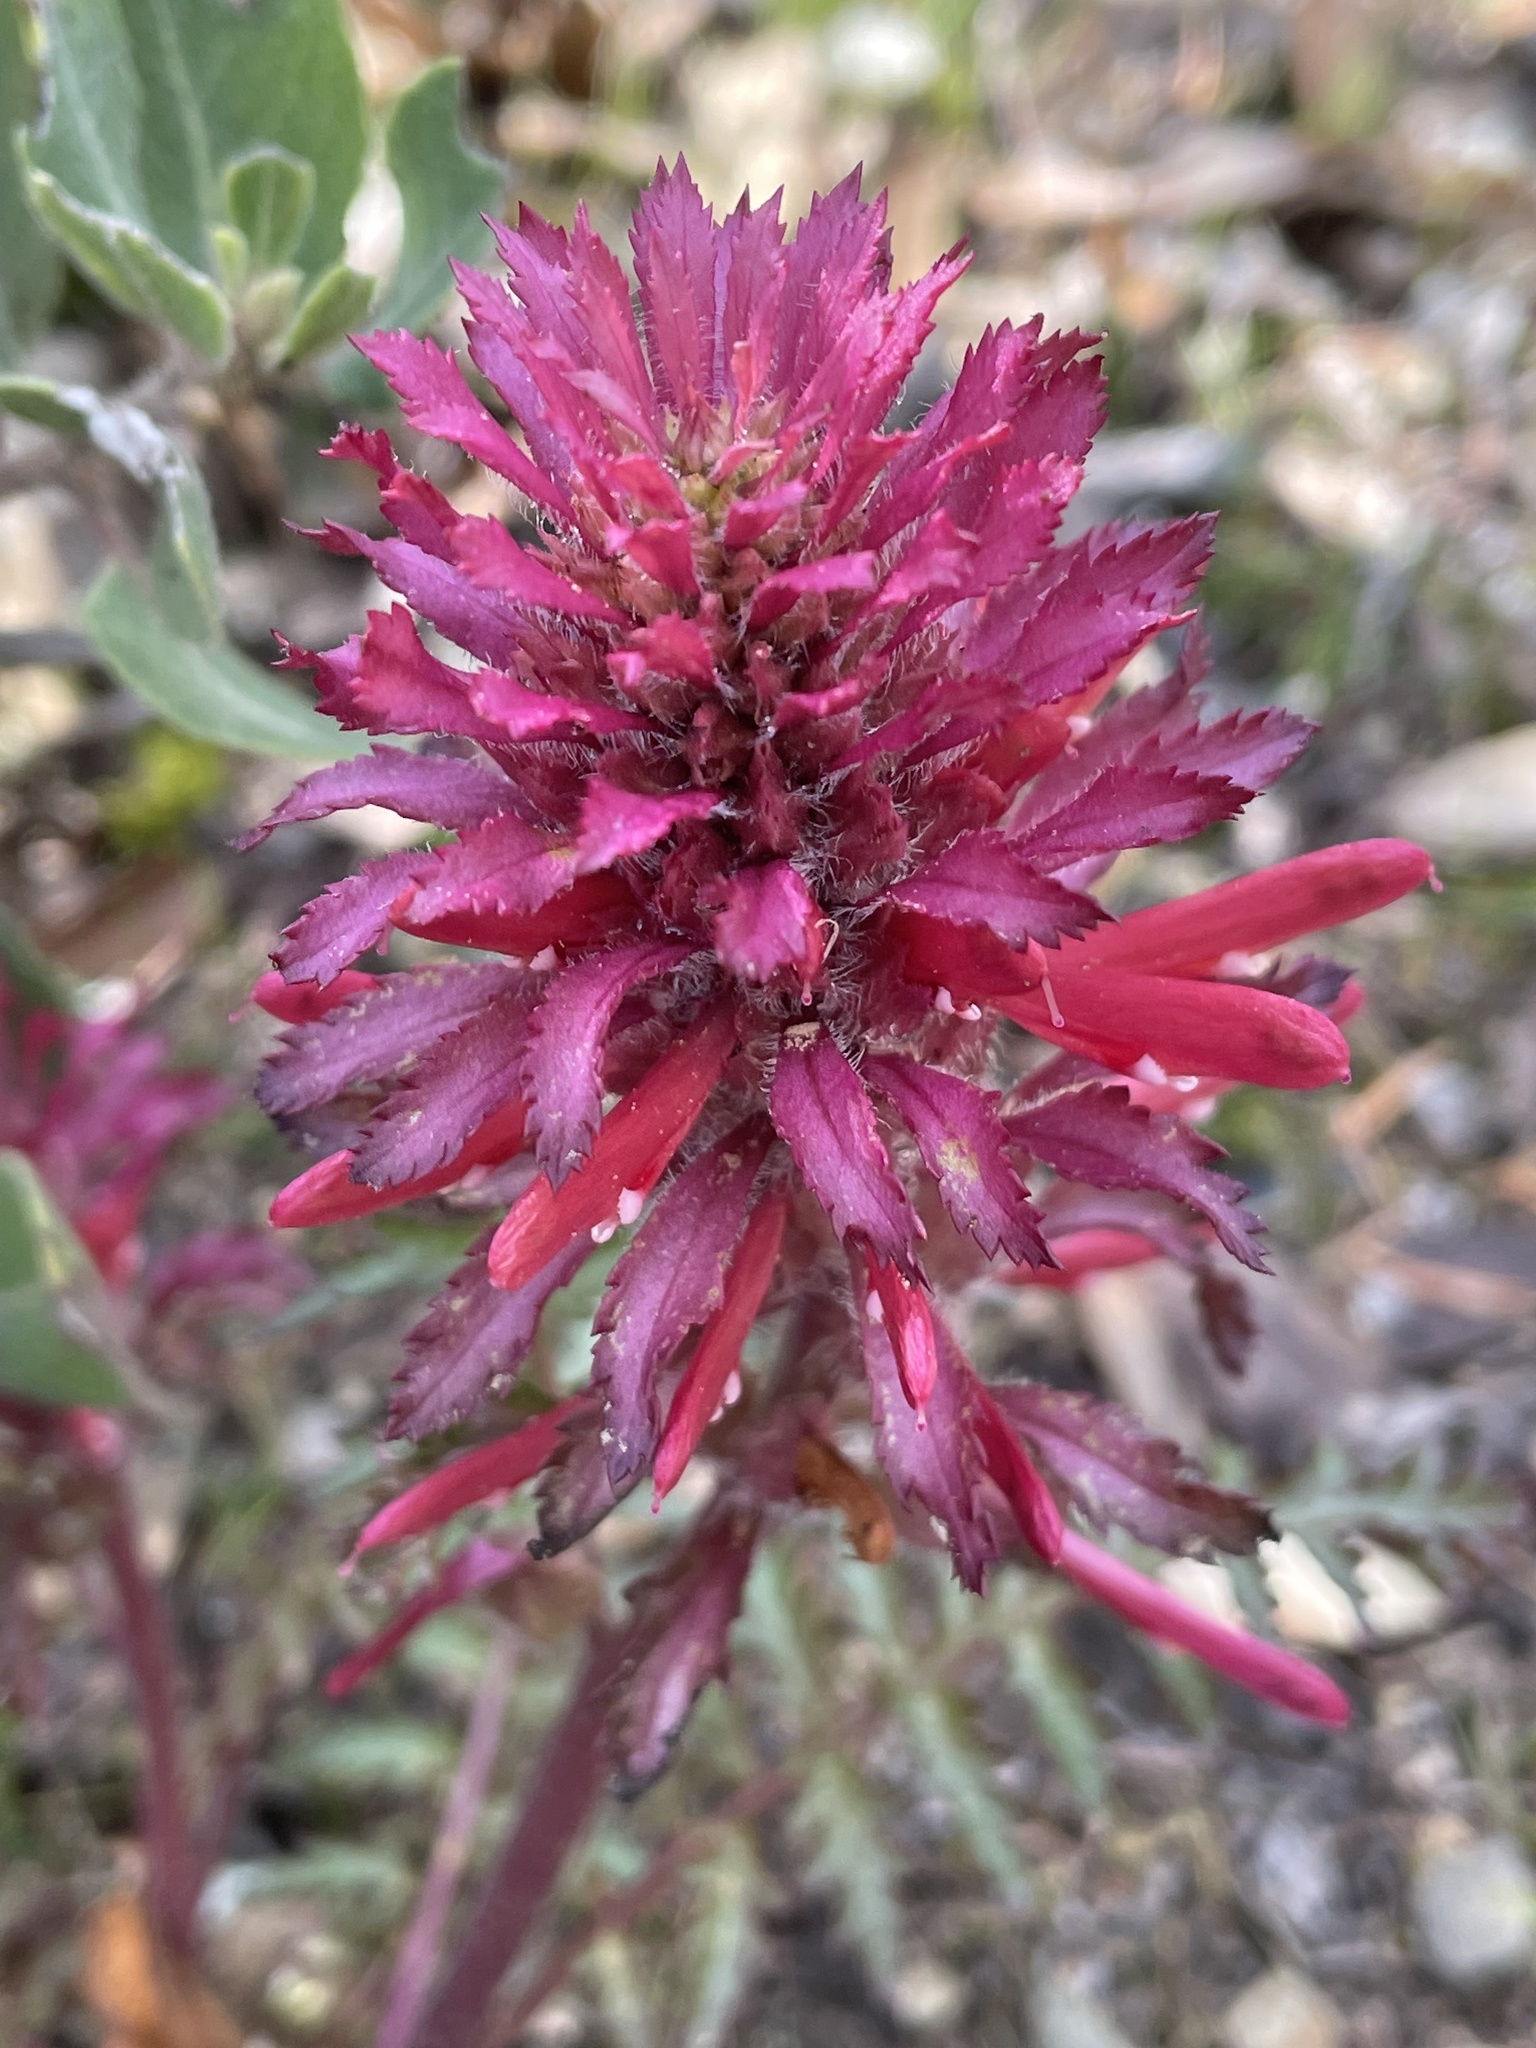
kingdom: Plantae
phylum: Tracheophyta
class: Magnoliopsida
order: Lamiales
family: Orobanchaceae
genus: Pedicularis
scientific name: Pedicularis densiflora
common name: Indian warrior
